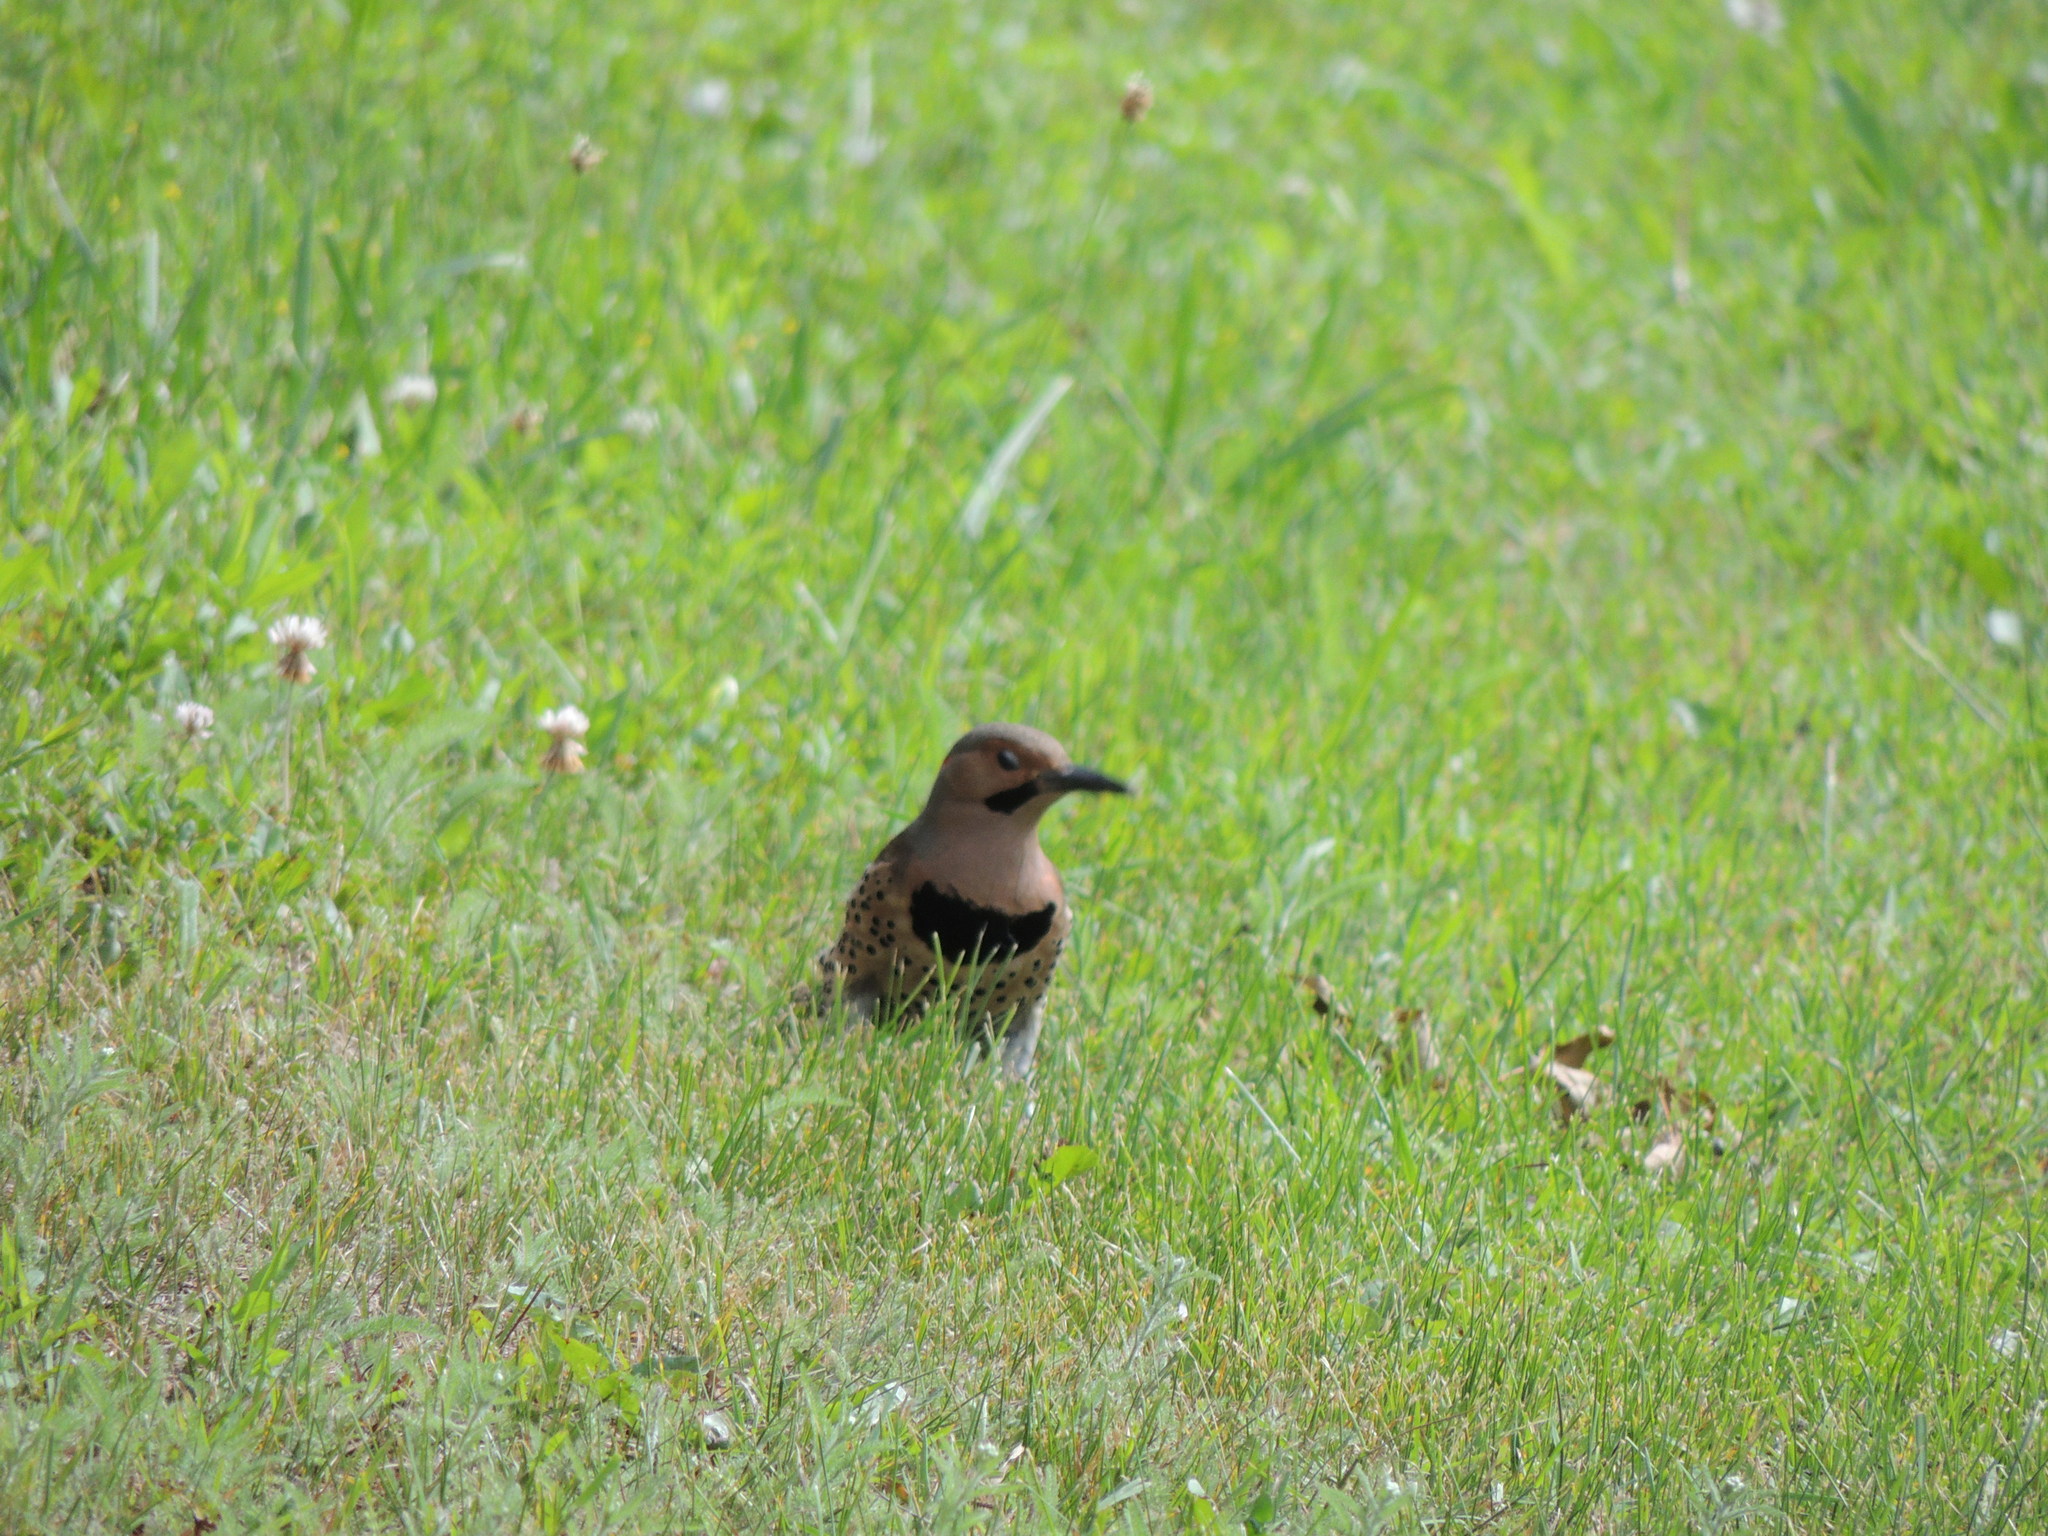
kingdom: Animalia
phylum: Chordata
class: Aves
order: Piciformes
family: Picidae
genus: Colaptes
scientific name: Colaptes auratus
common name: Northern flicker
